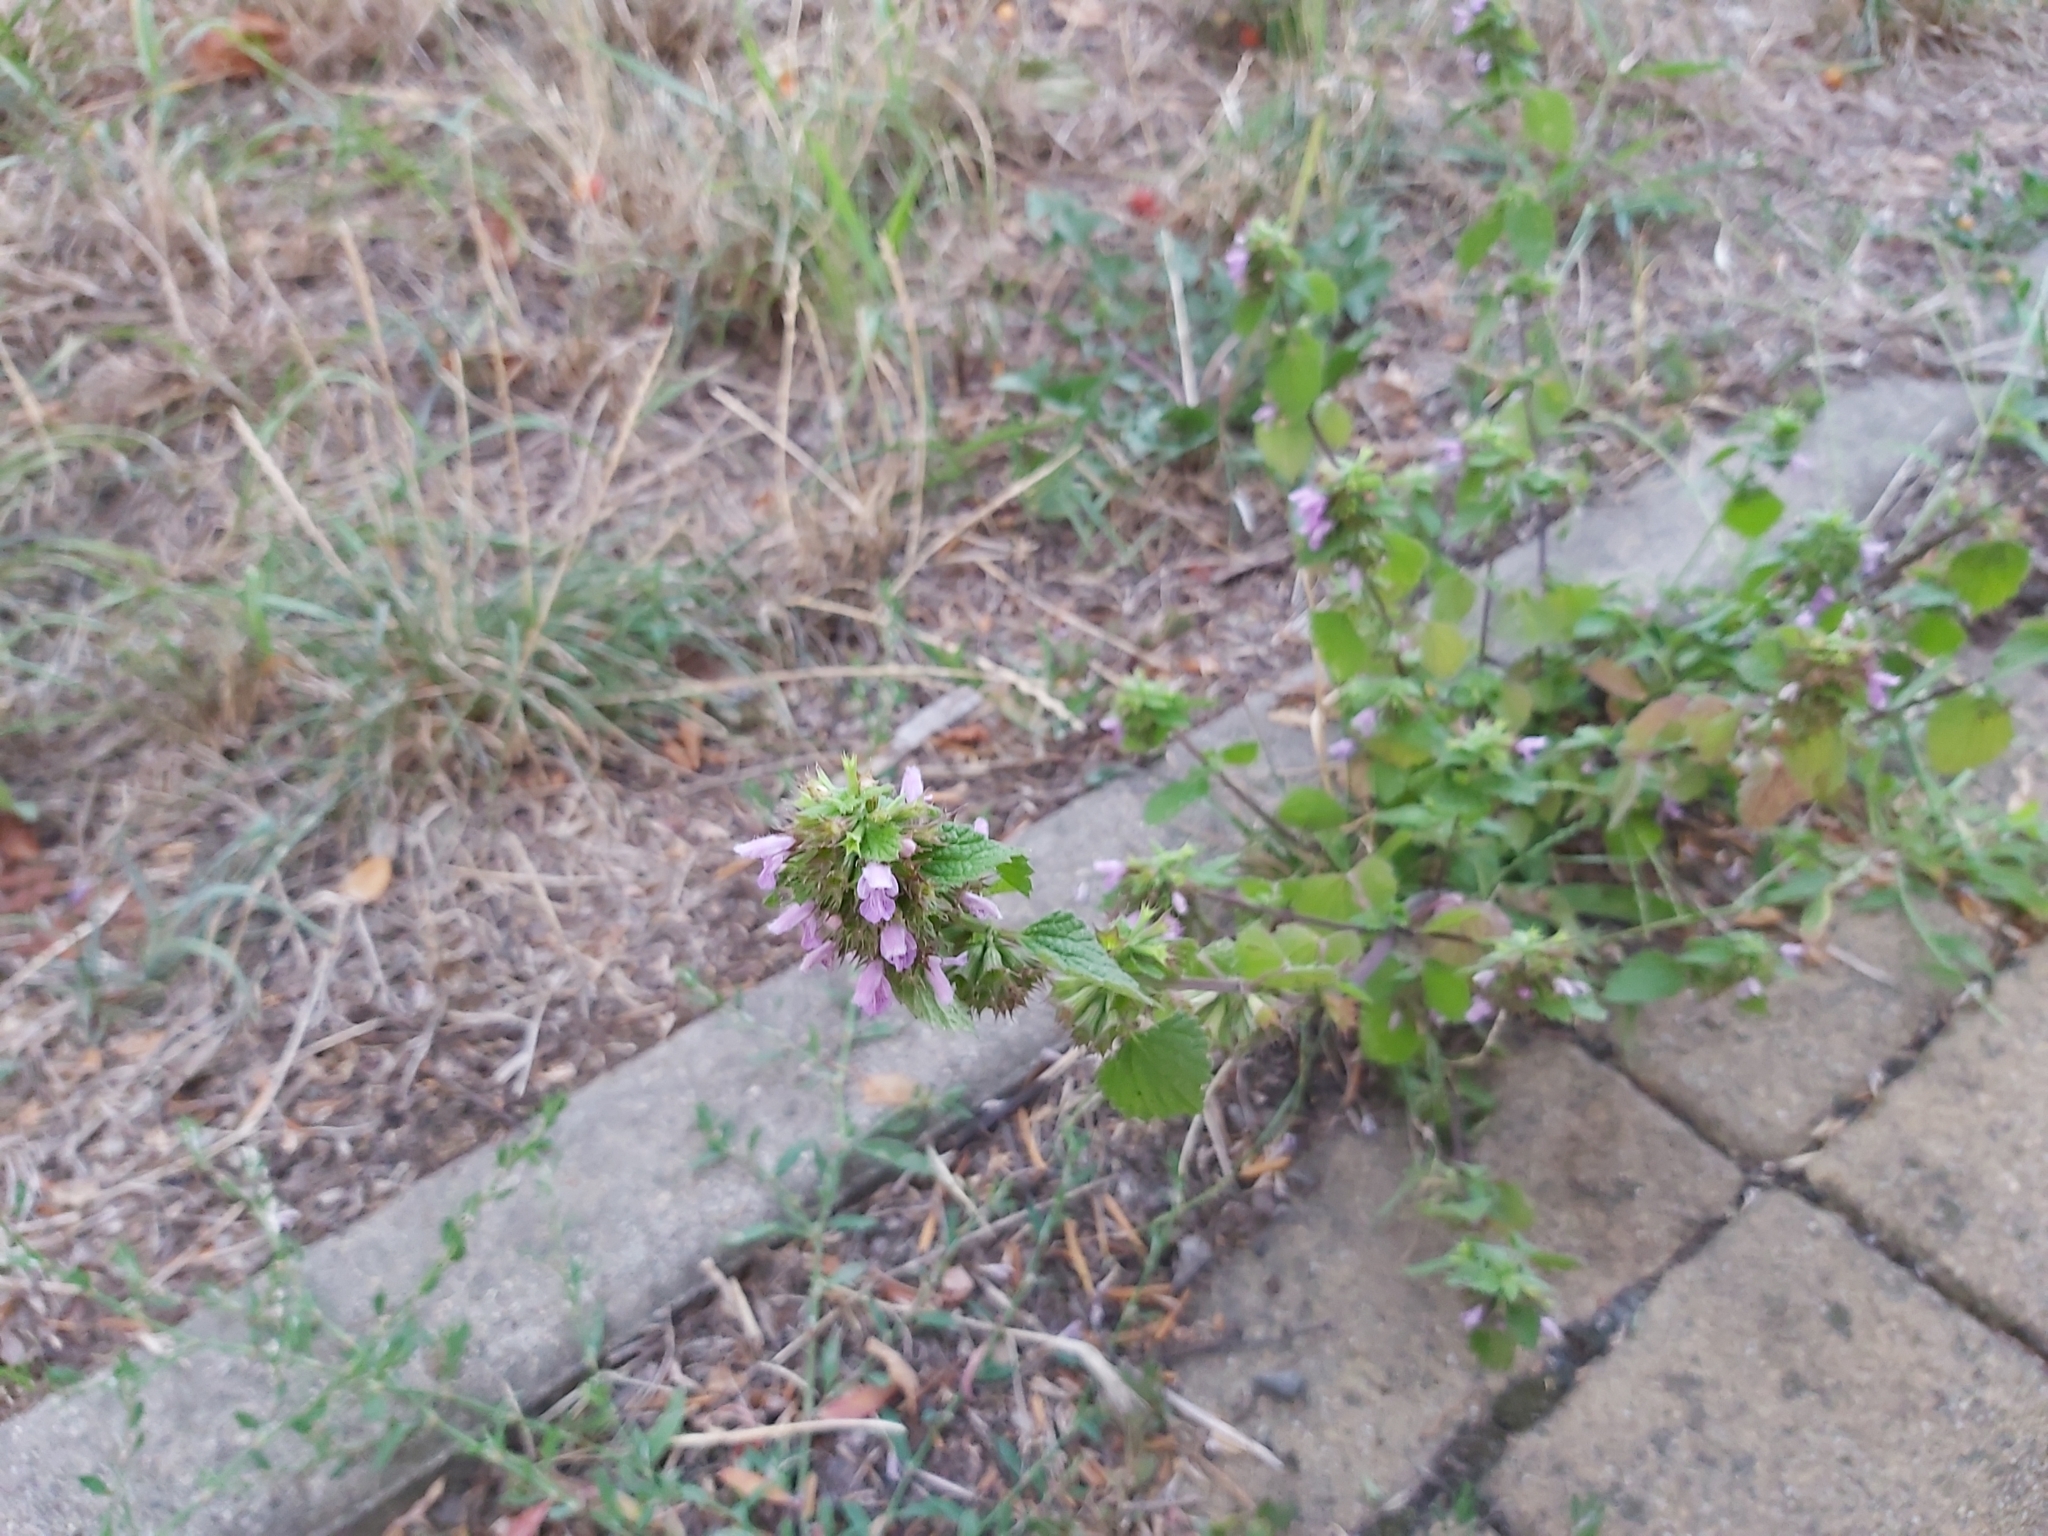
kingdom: Plantae
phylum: Tracheophyta
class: Magnoliopsida
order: Lamiales
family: Lamiaceae
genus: Ballota
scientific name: Ballota nigra
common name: Black horehound
